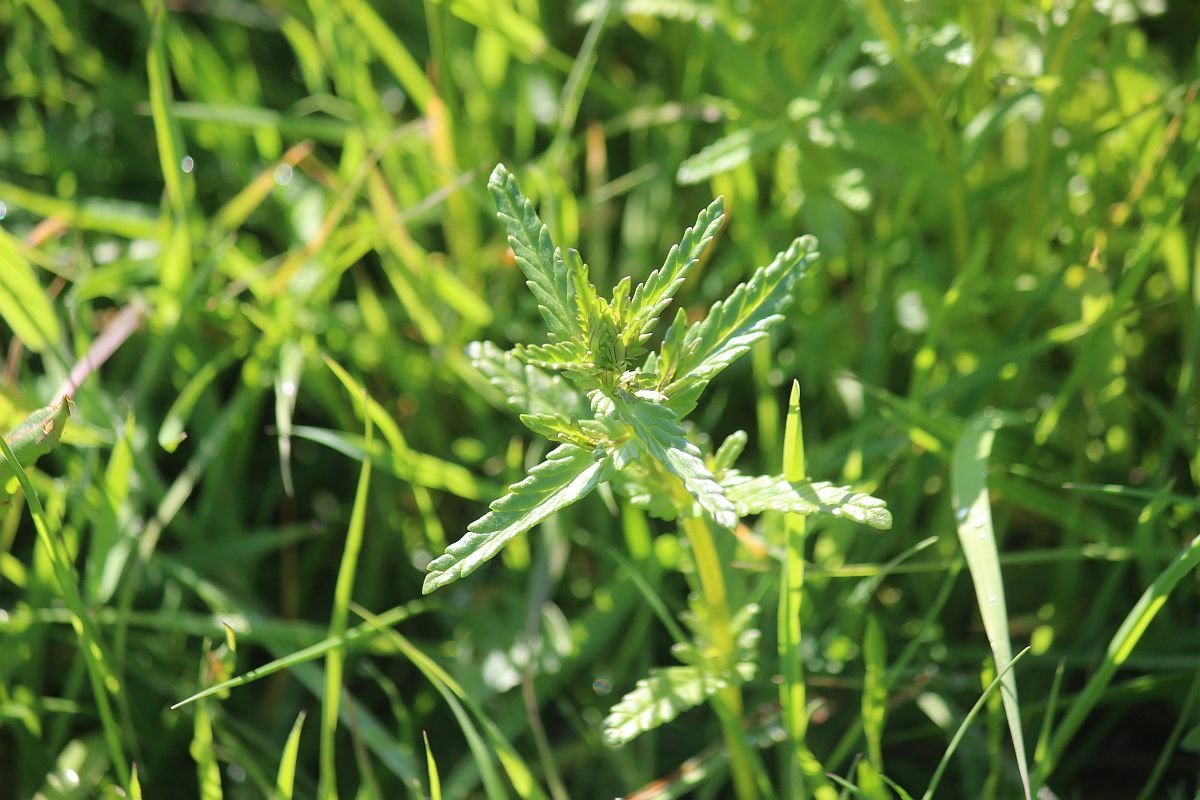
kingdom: Plantae
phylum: Tracheophyta
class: Magnoliopsida
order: Lamiales
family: Orobanchaceae
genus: Rhinanthus
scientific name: Rhinanthus minor
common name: Yellow-rattle
